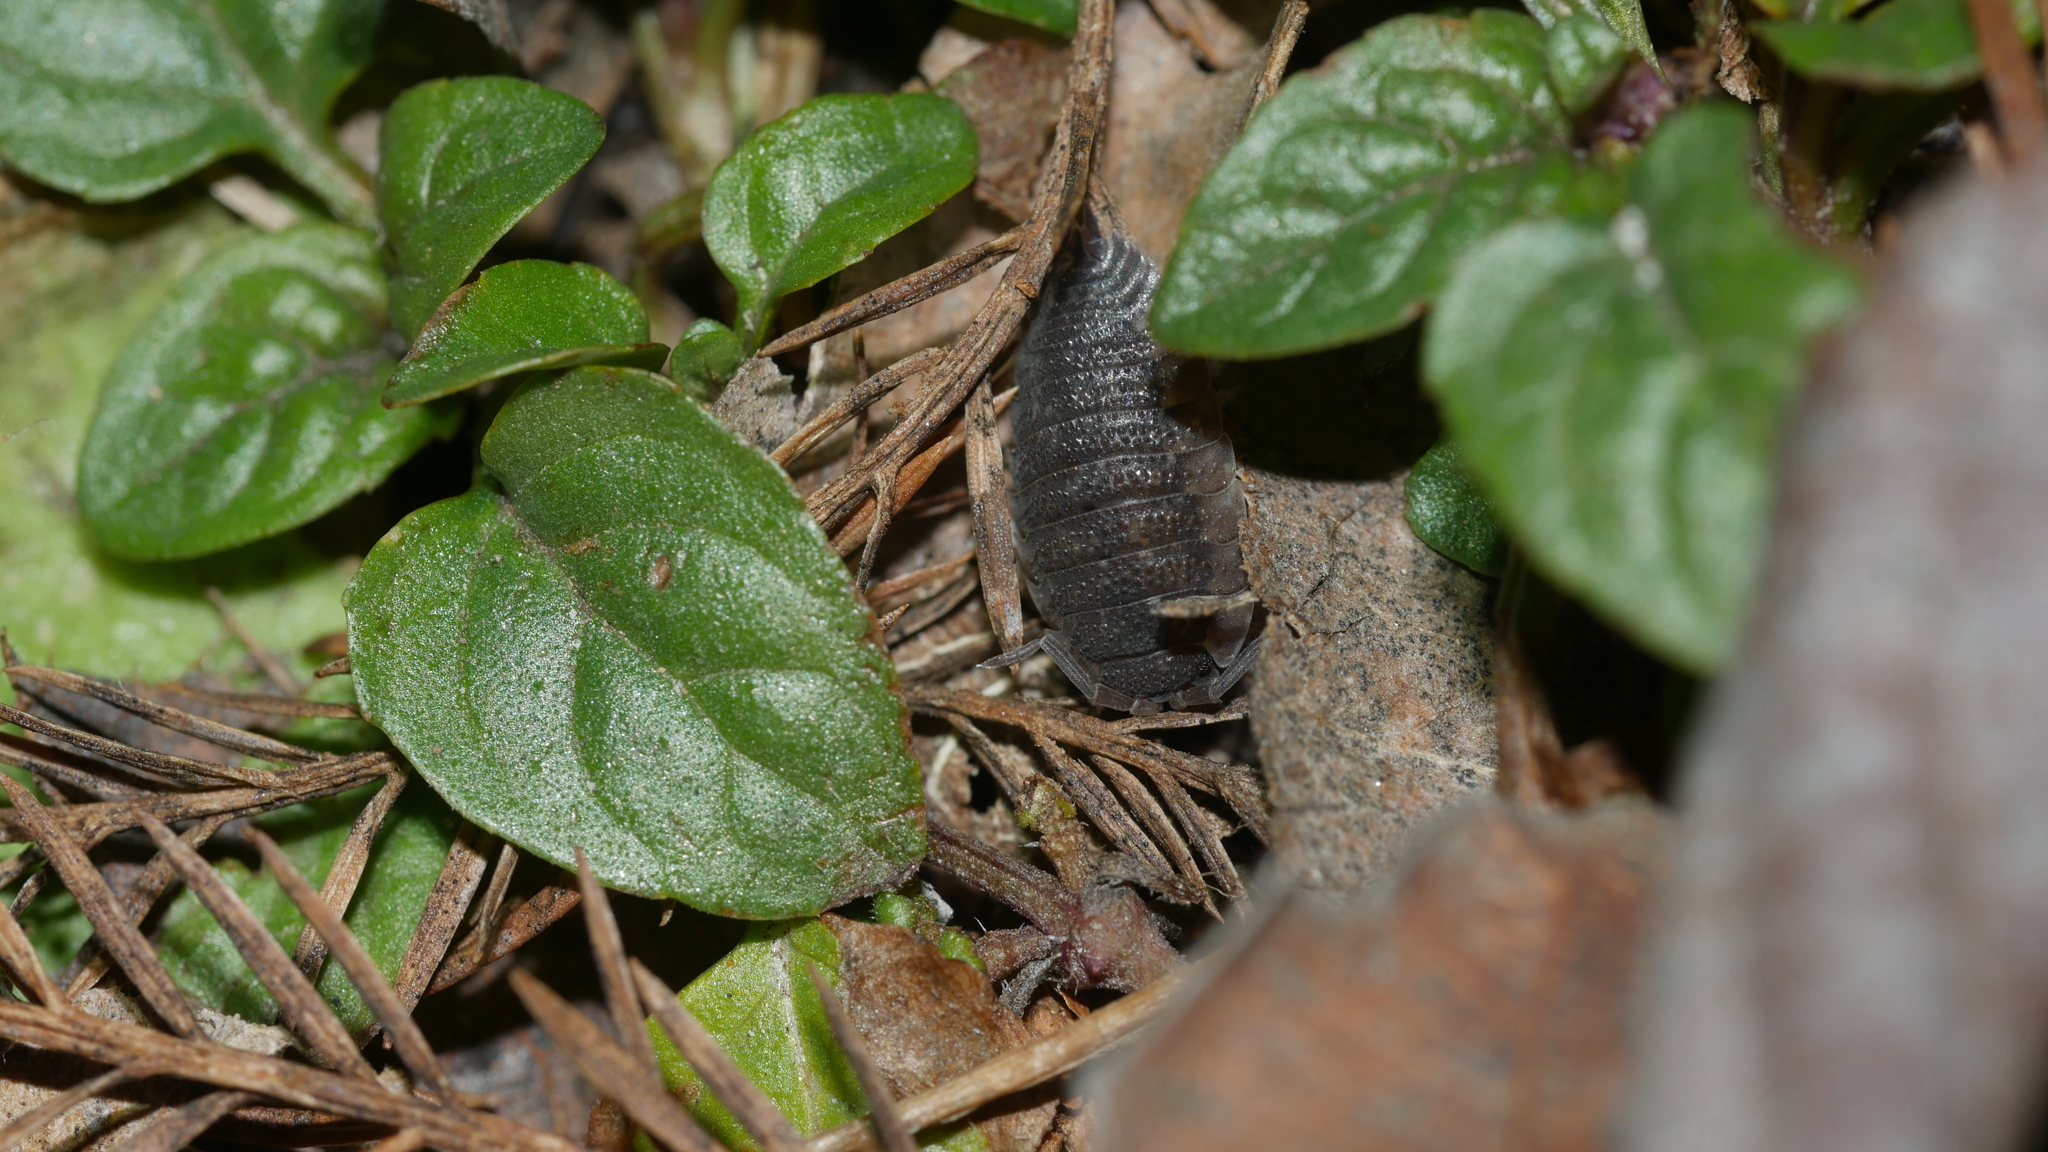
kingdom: Animalia
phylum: Arthropoda
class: Malacostraca
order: Isopoda
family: Porcellionidae
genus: Porcellio
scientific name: Porcellio scaber
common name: Common rough woodlouse
